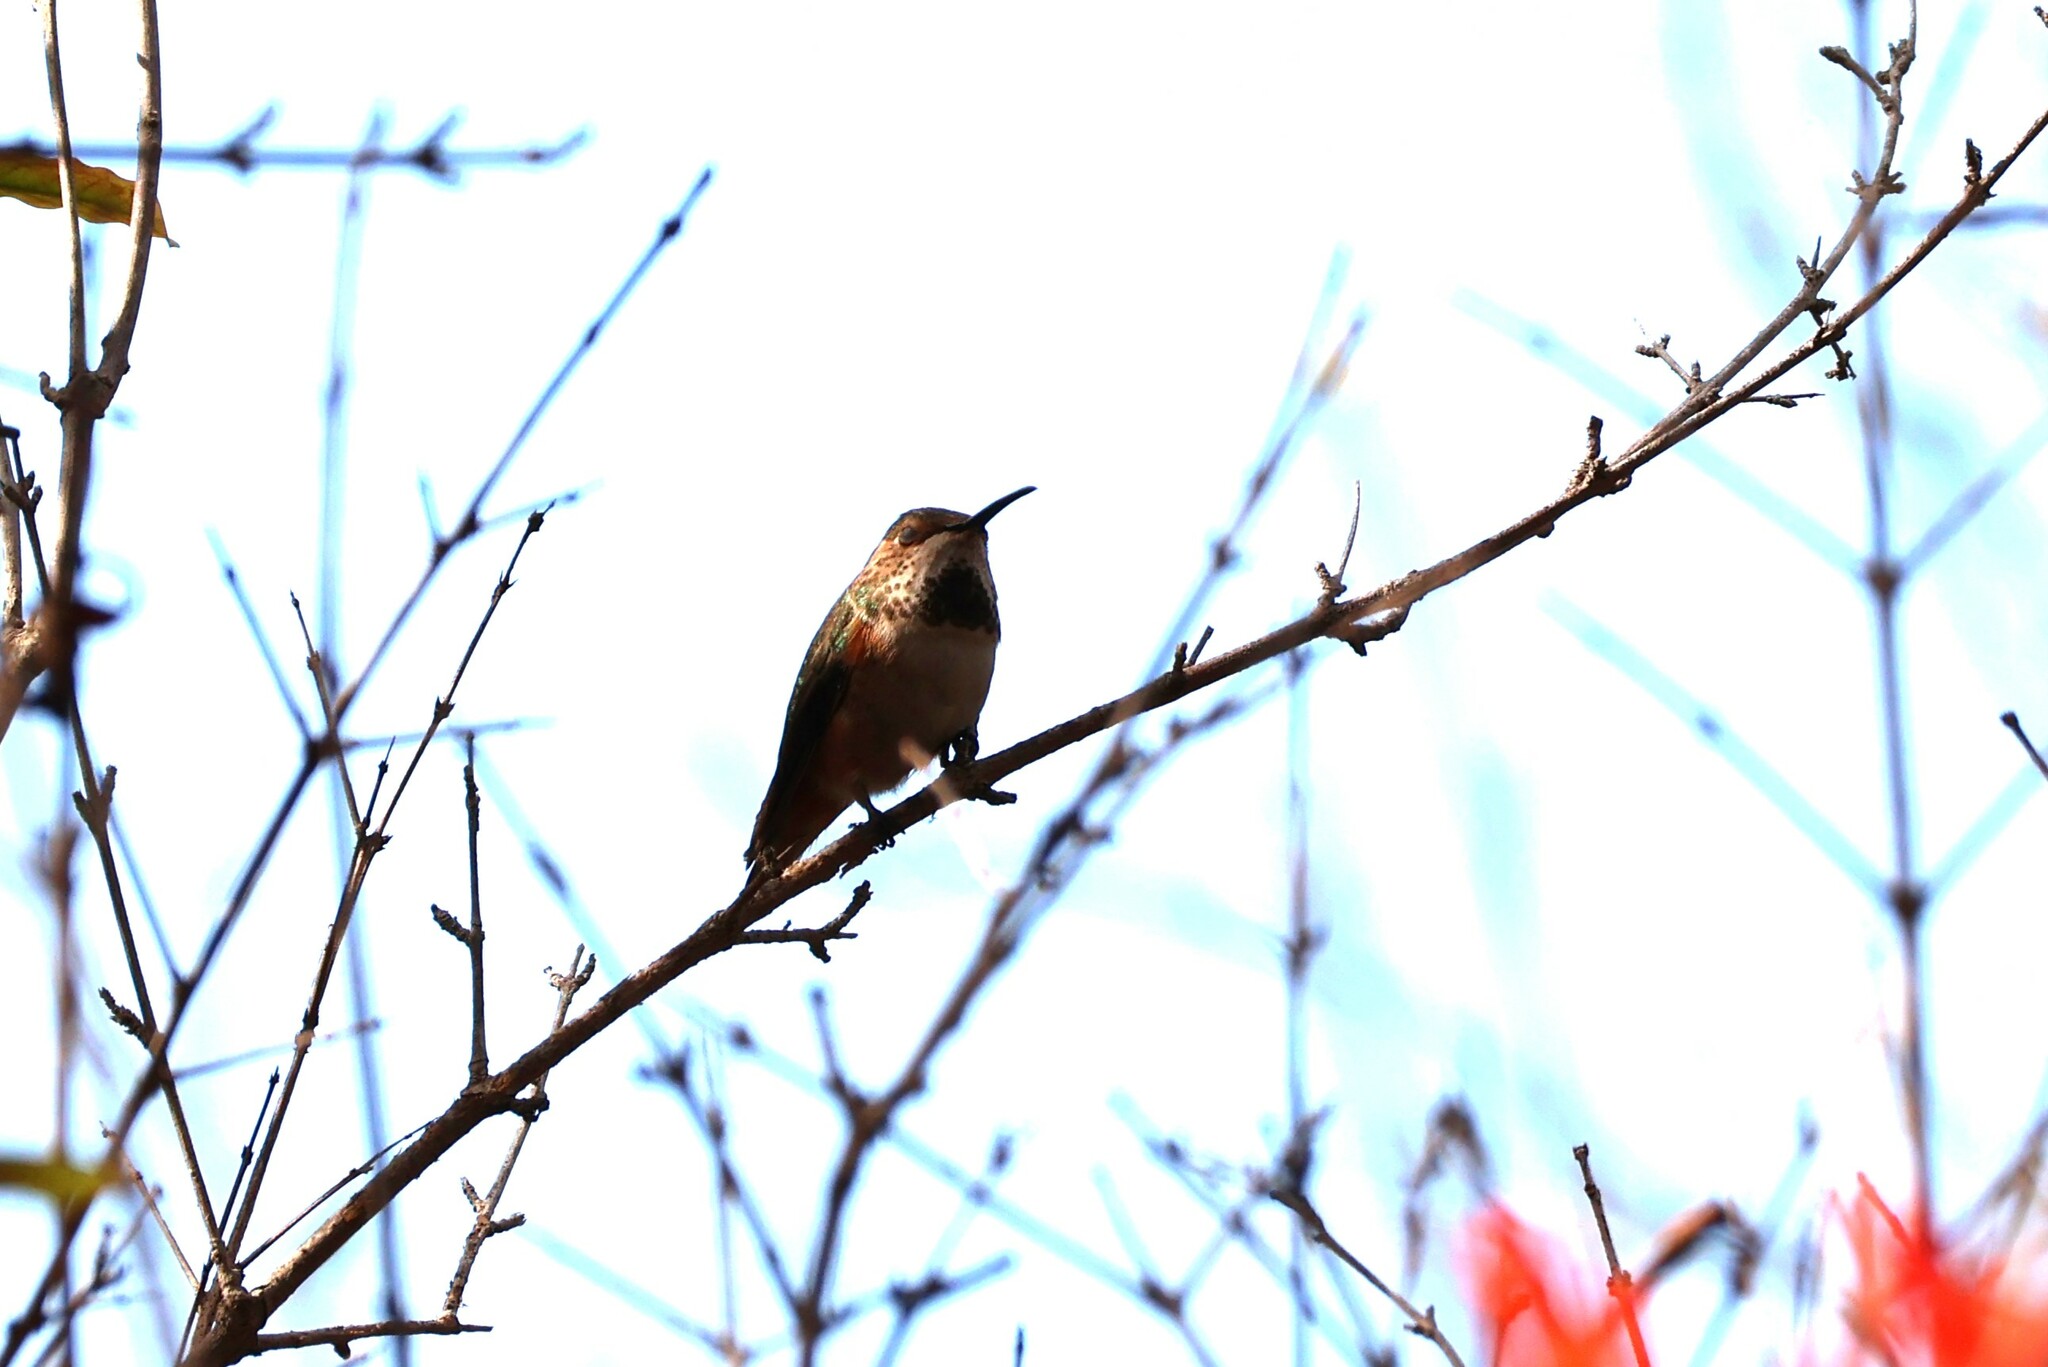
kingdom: Animalia
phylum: Chordata
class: Aves
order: Apodiformes
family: Trochilidae
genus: Selasphorus
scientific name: Selasphorus sasin
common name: Allen's hummingbird
